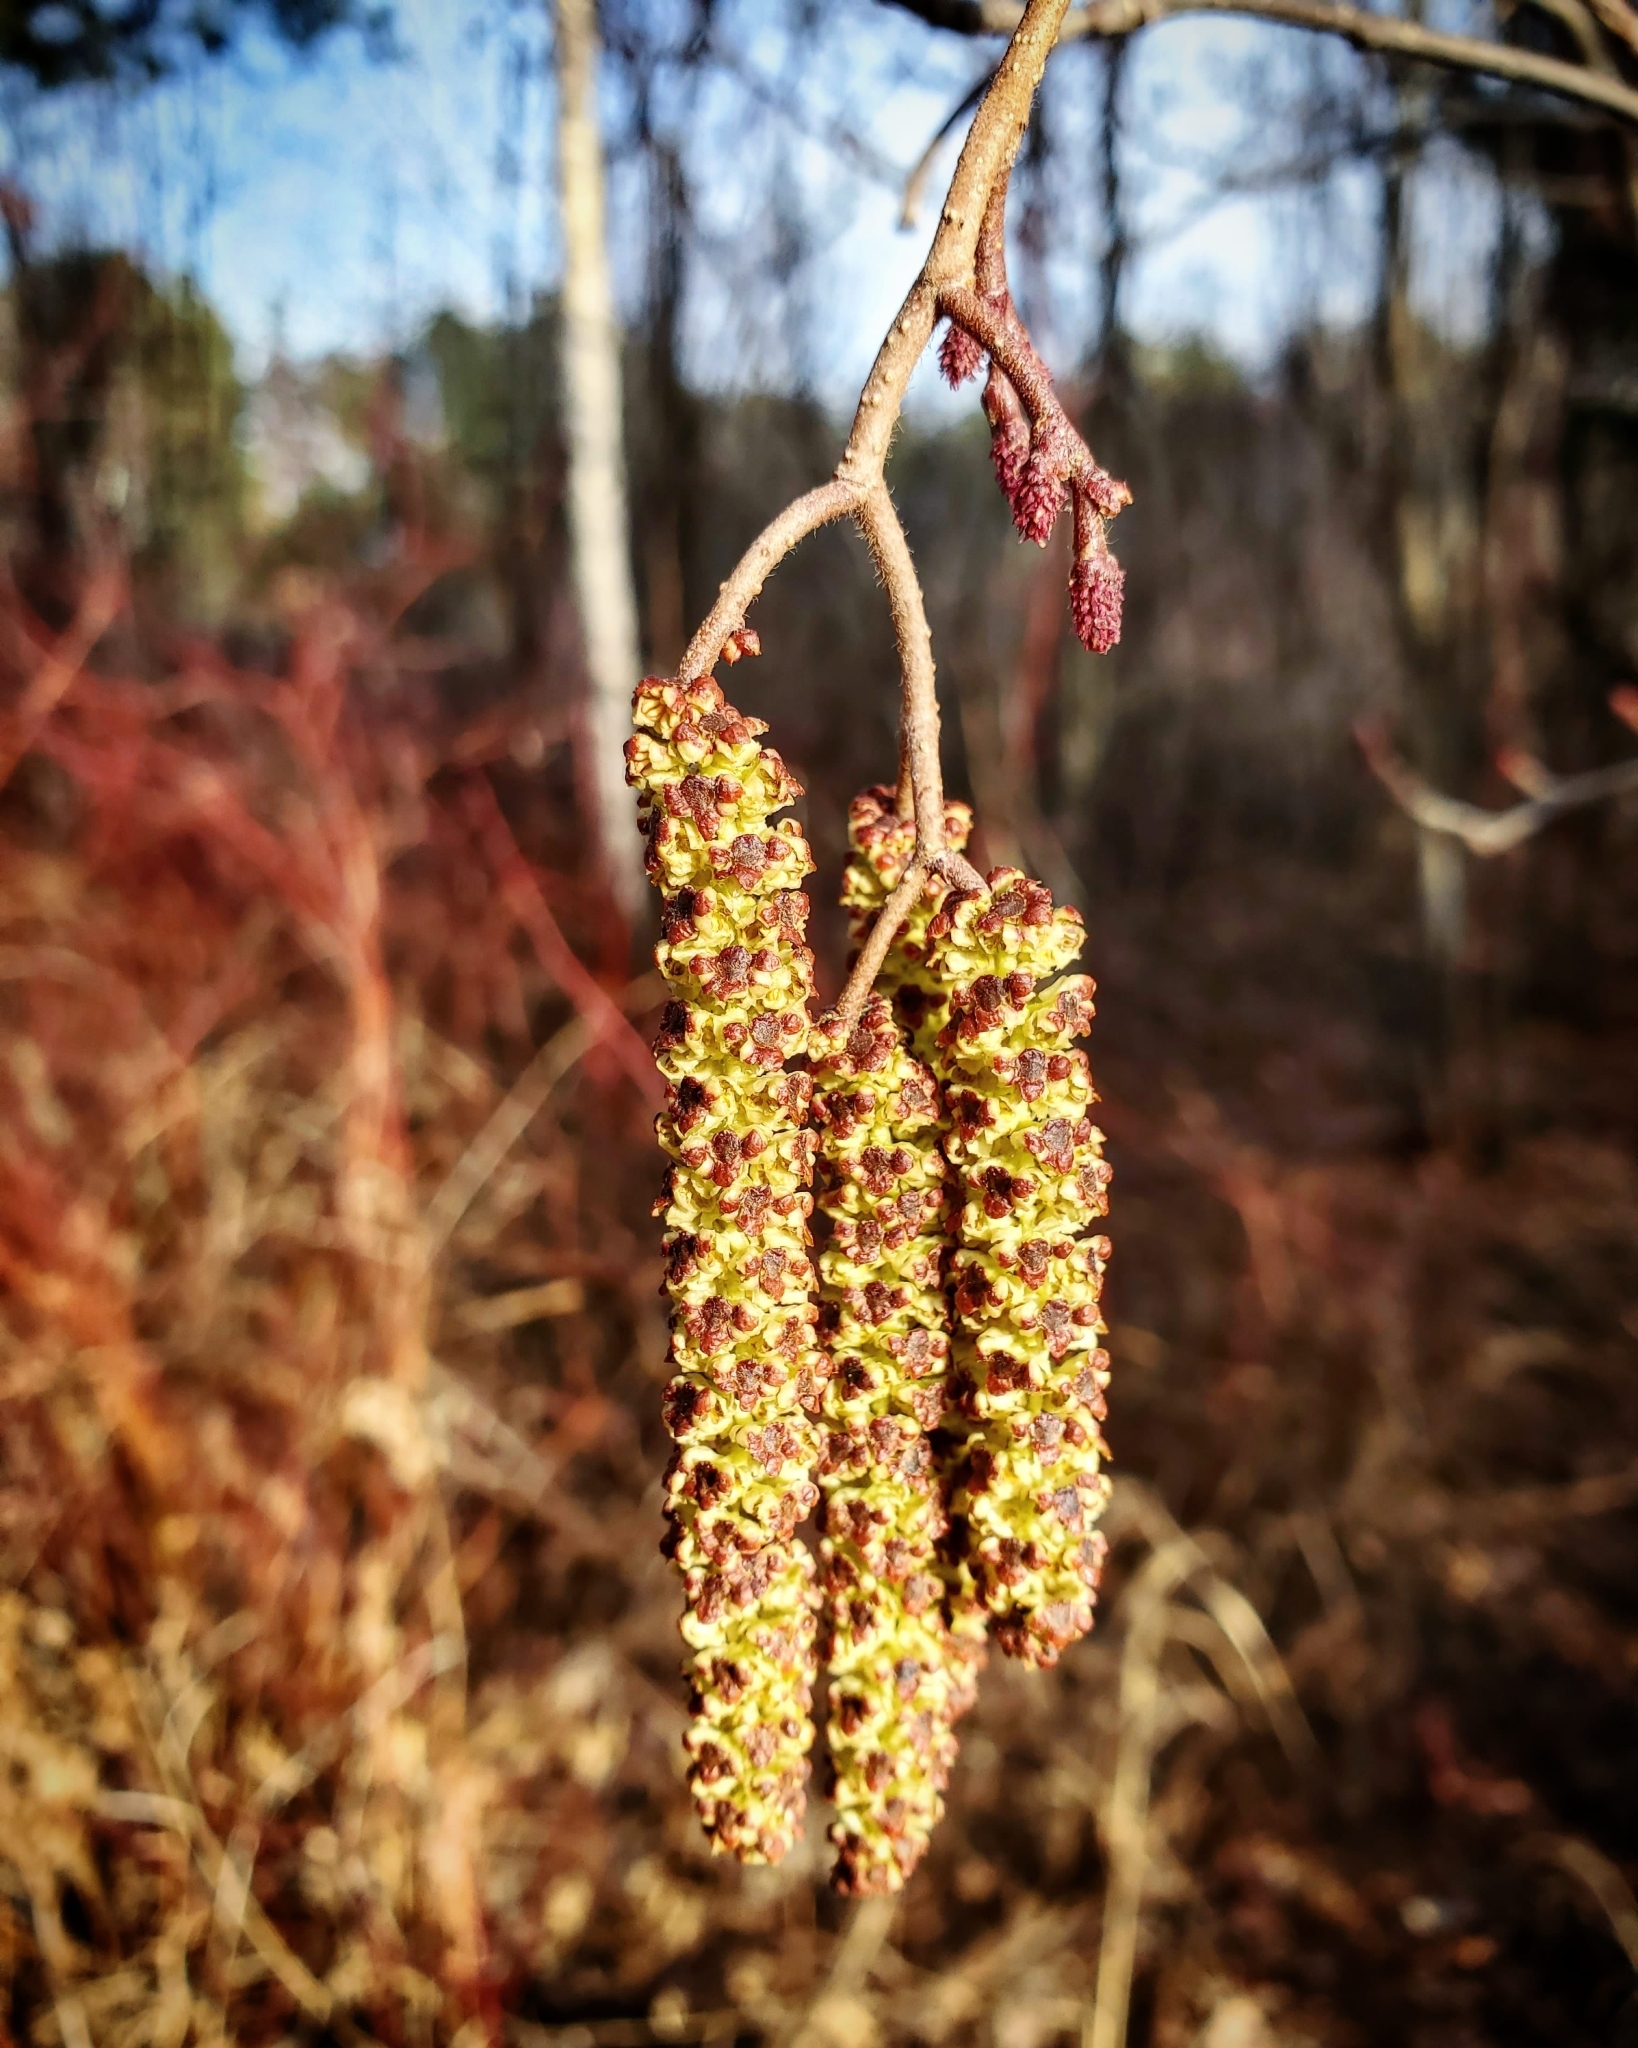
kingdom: Plantae
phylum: Tracheophyta
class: Magnoliopsida
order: Fagales
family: Betulaceae
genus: Alnus
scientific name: Alnus incana
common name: Grey alder
